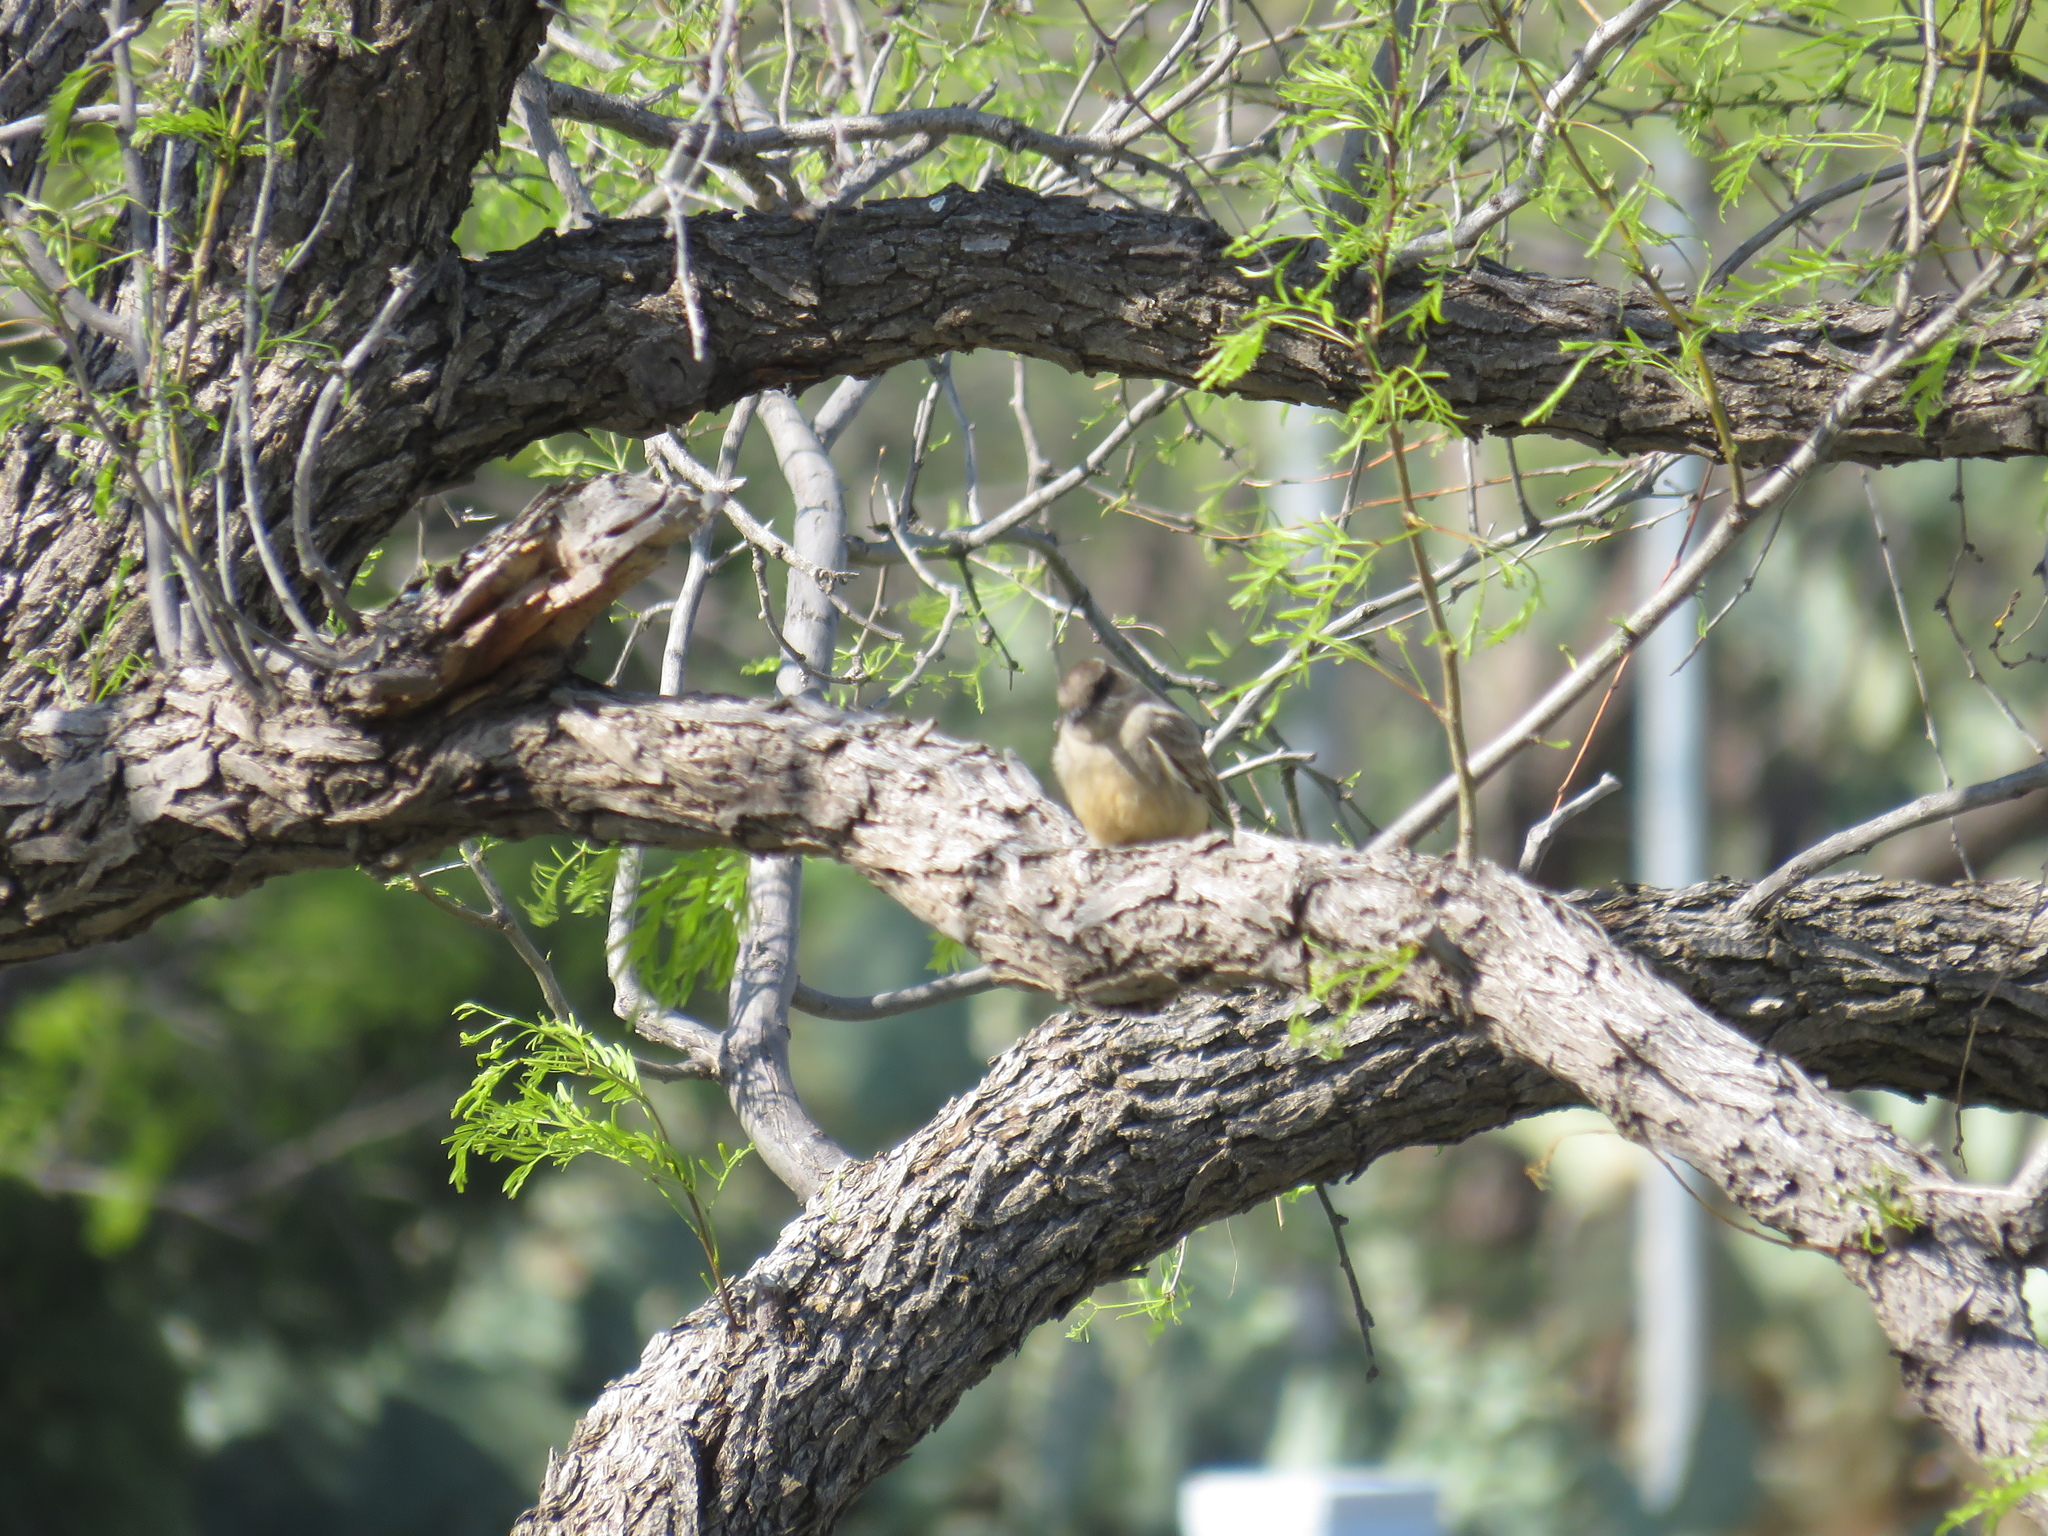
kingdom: Animalia
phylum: Chordata
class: Aves
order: Passeriformes
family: Tyrannidae
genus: Sayornis
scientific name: Sayornis saya
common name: Say's phoebe
